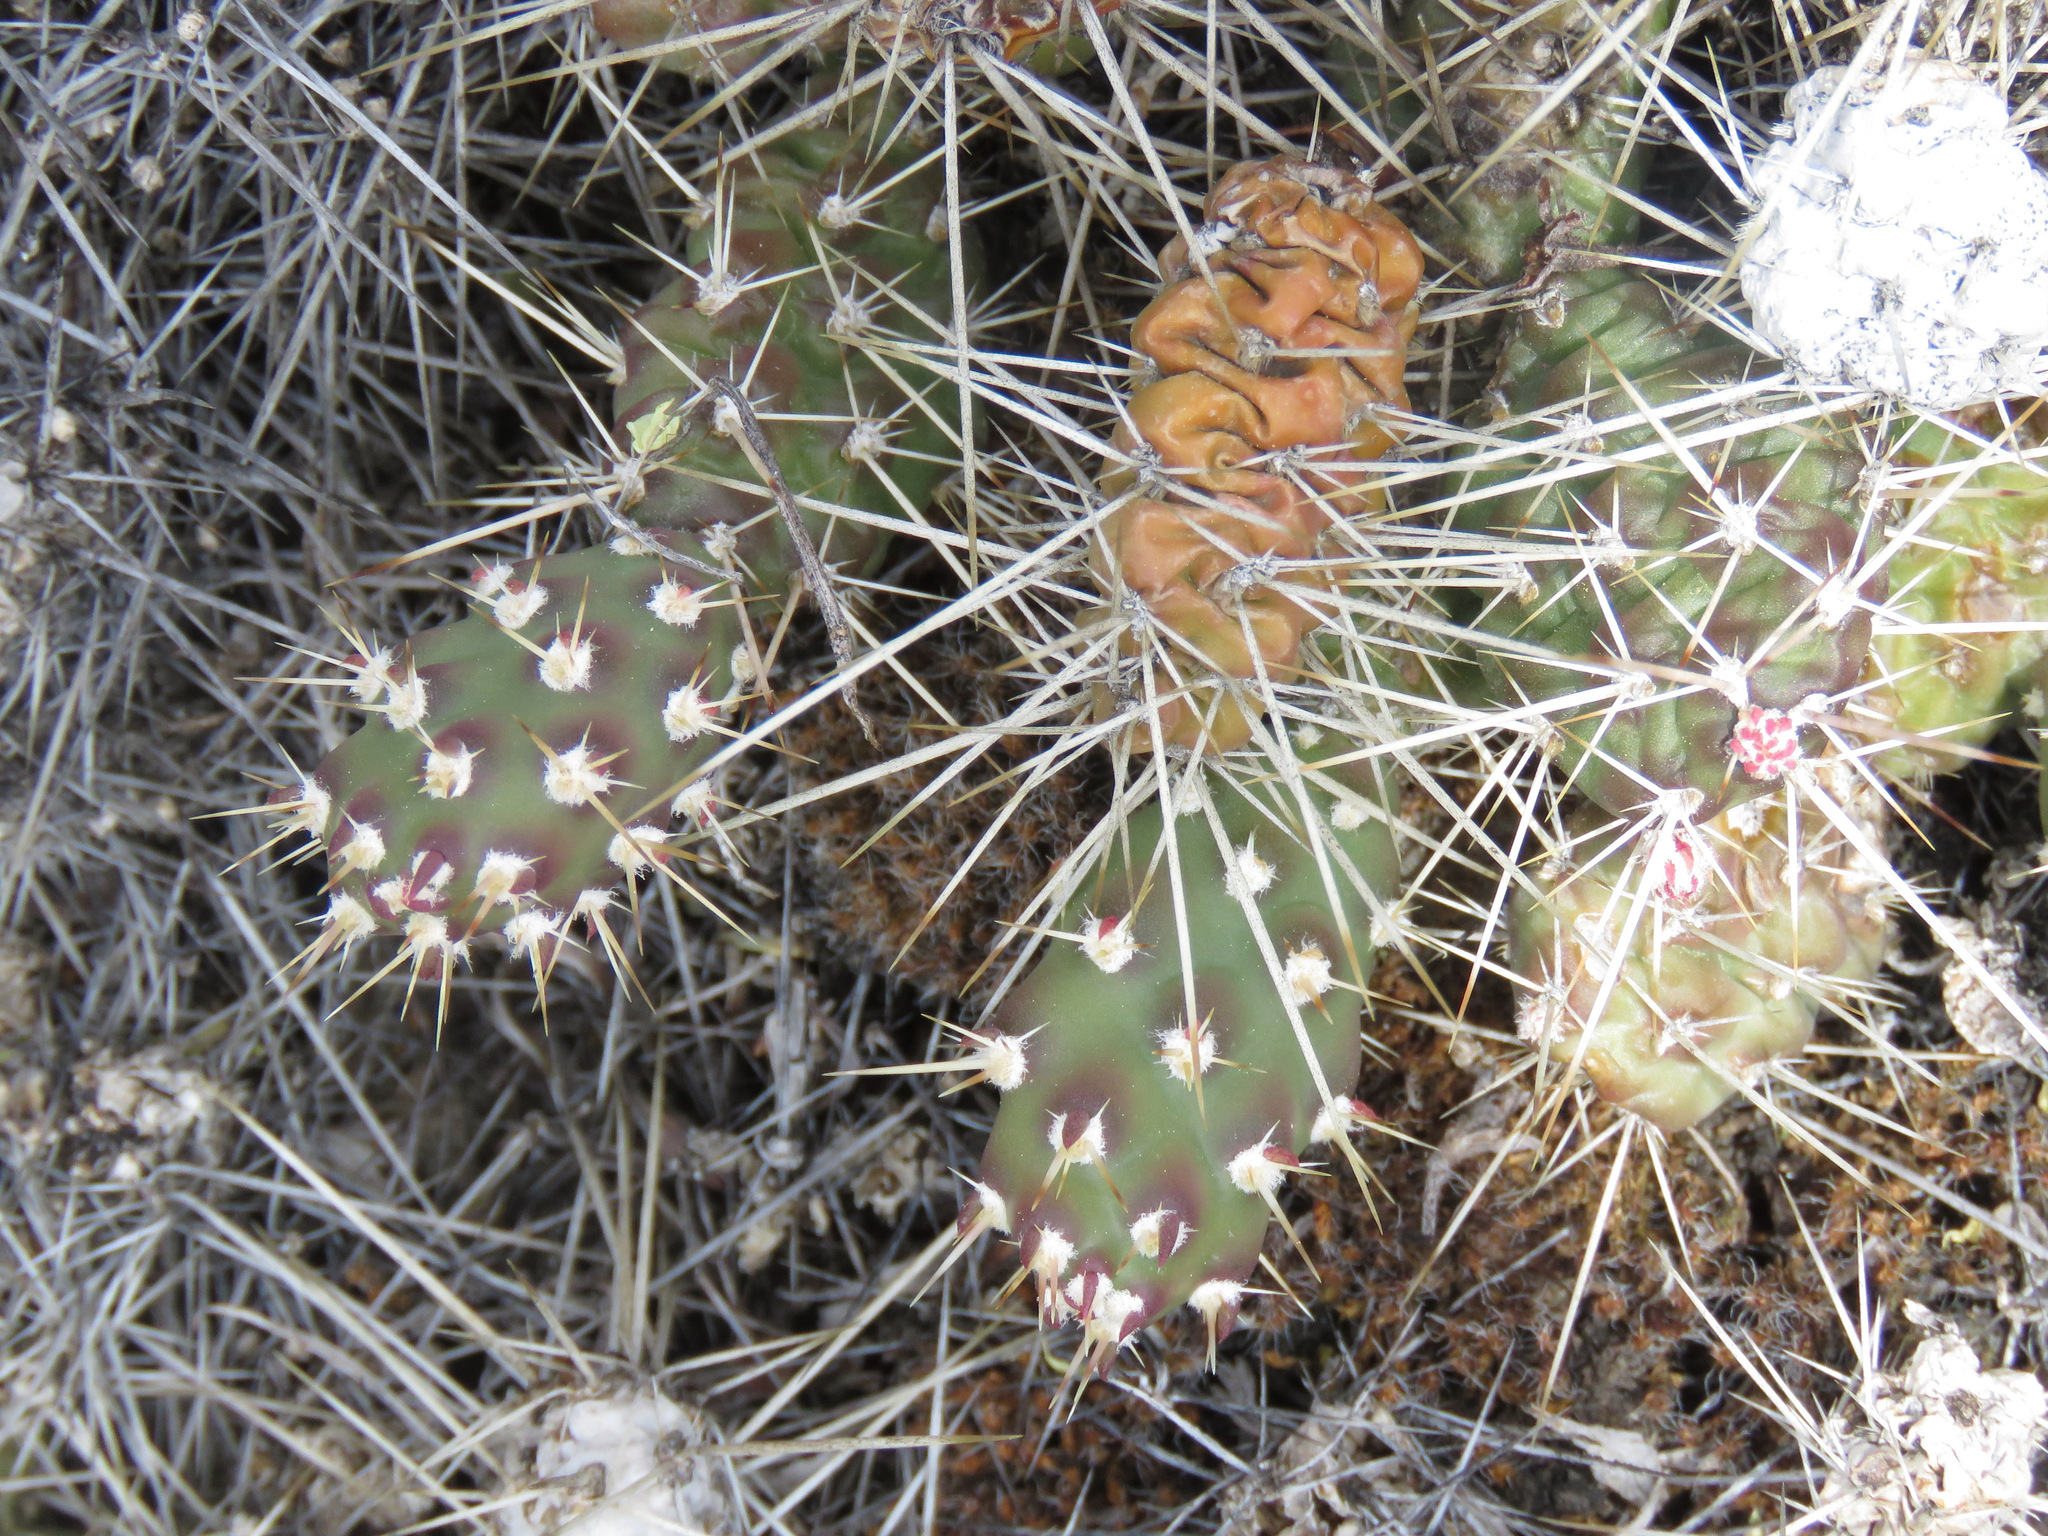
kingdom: Plantae
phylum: Tracheophyta
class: Magnoliopsida
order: Caryophyllales
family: Cactaceae
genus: Opuntia
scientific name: Opuntia fragilis
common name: Brittle cactus
